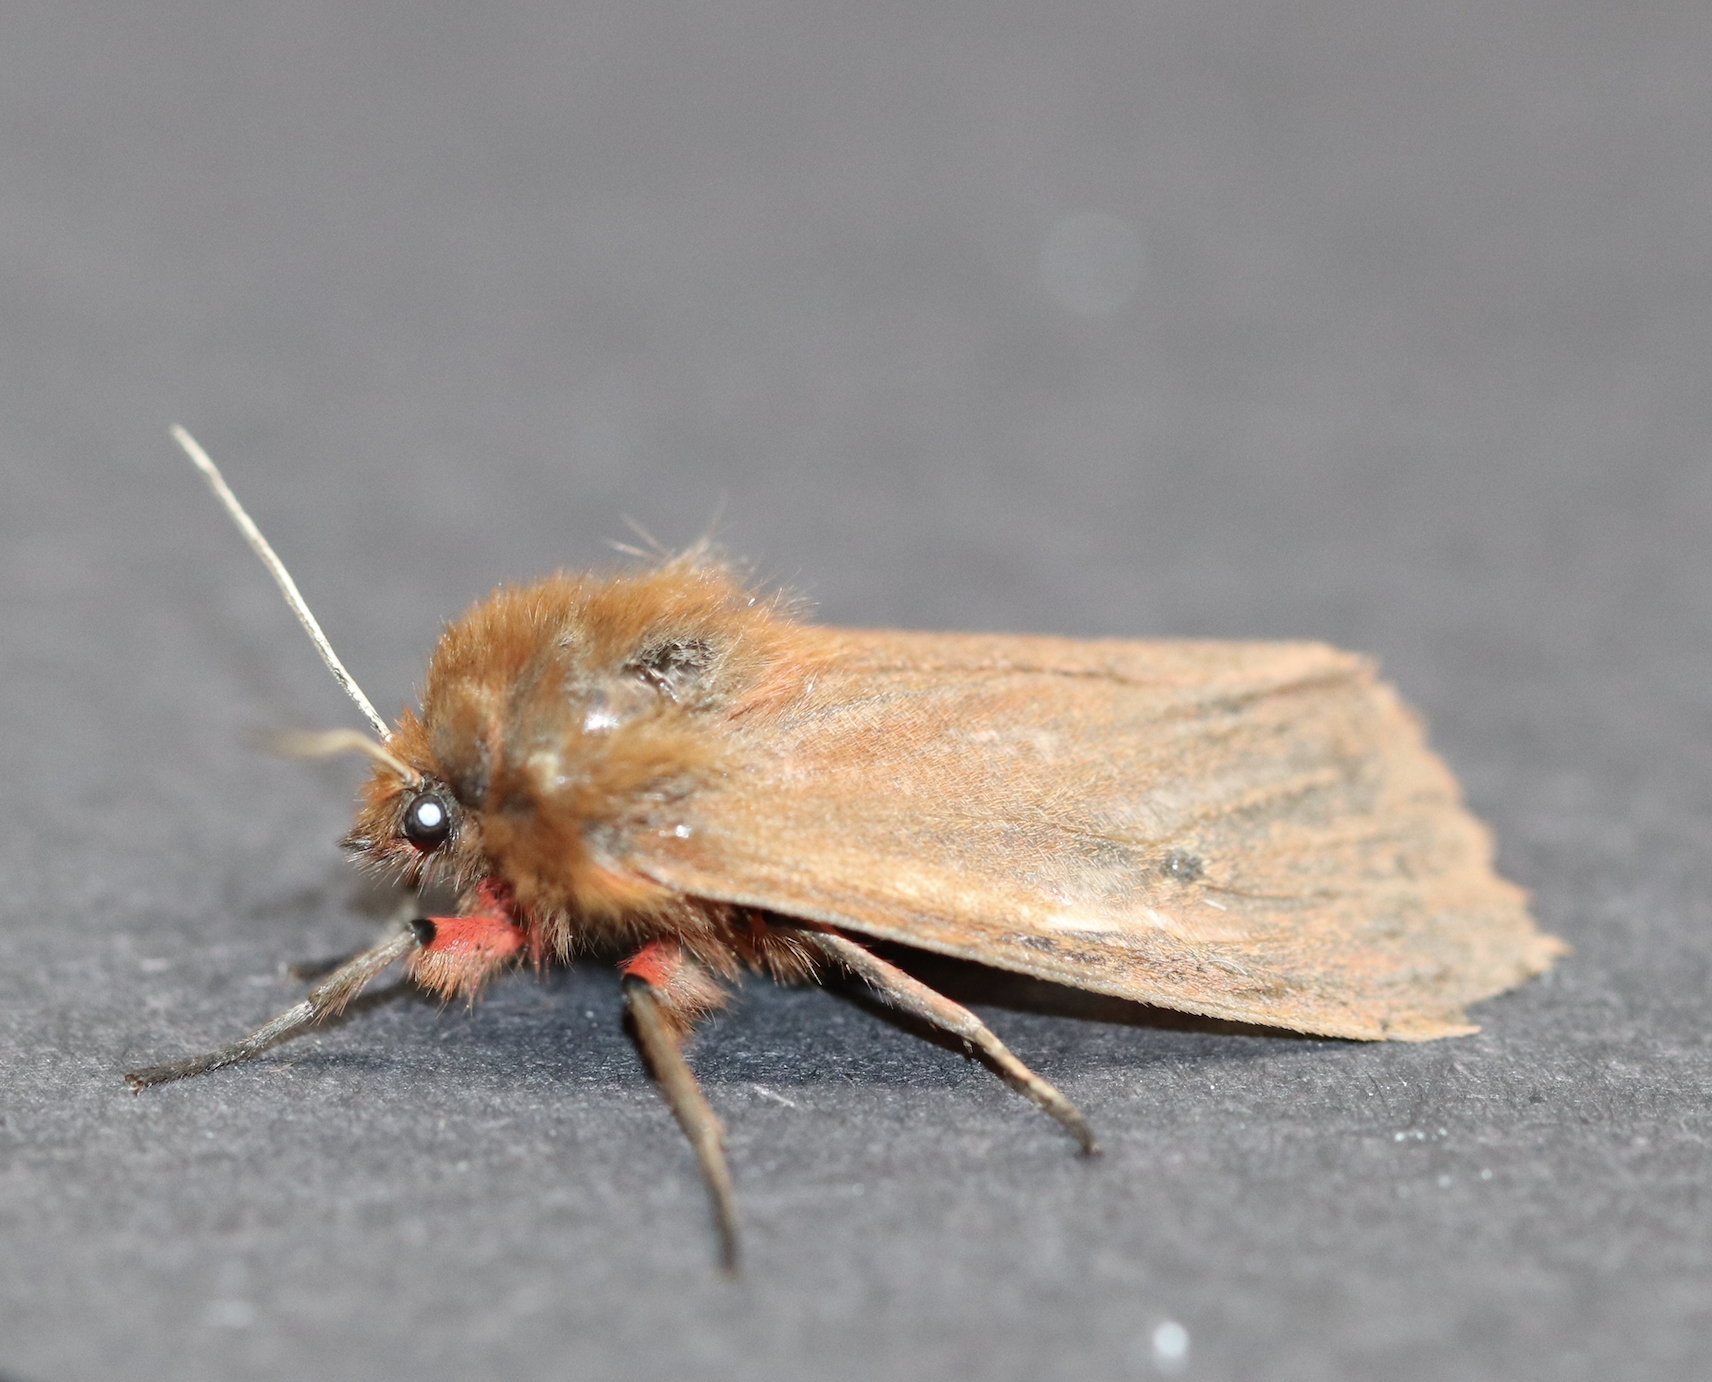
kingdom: Animalia
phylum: Arthropoda
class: Insecta
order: Lepidoptera
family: Erebidae
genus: Phragmatobia
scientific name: Phragmatobia fuliginosa
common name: Ruby tiger
